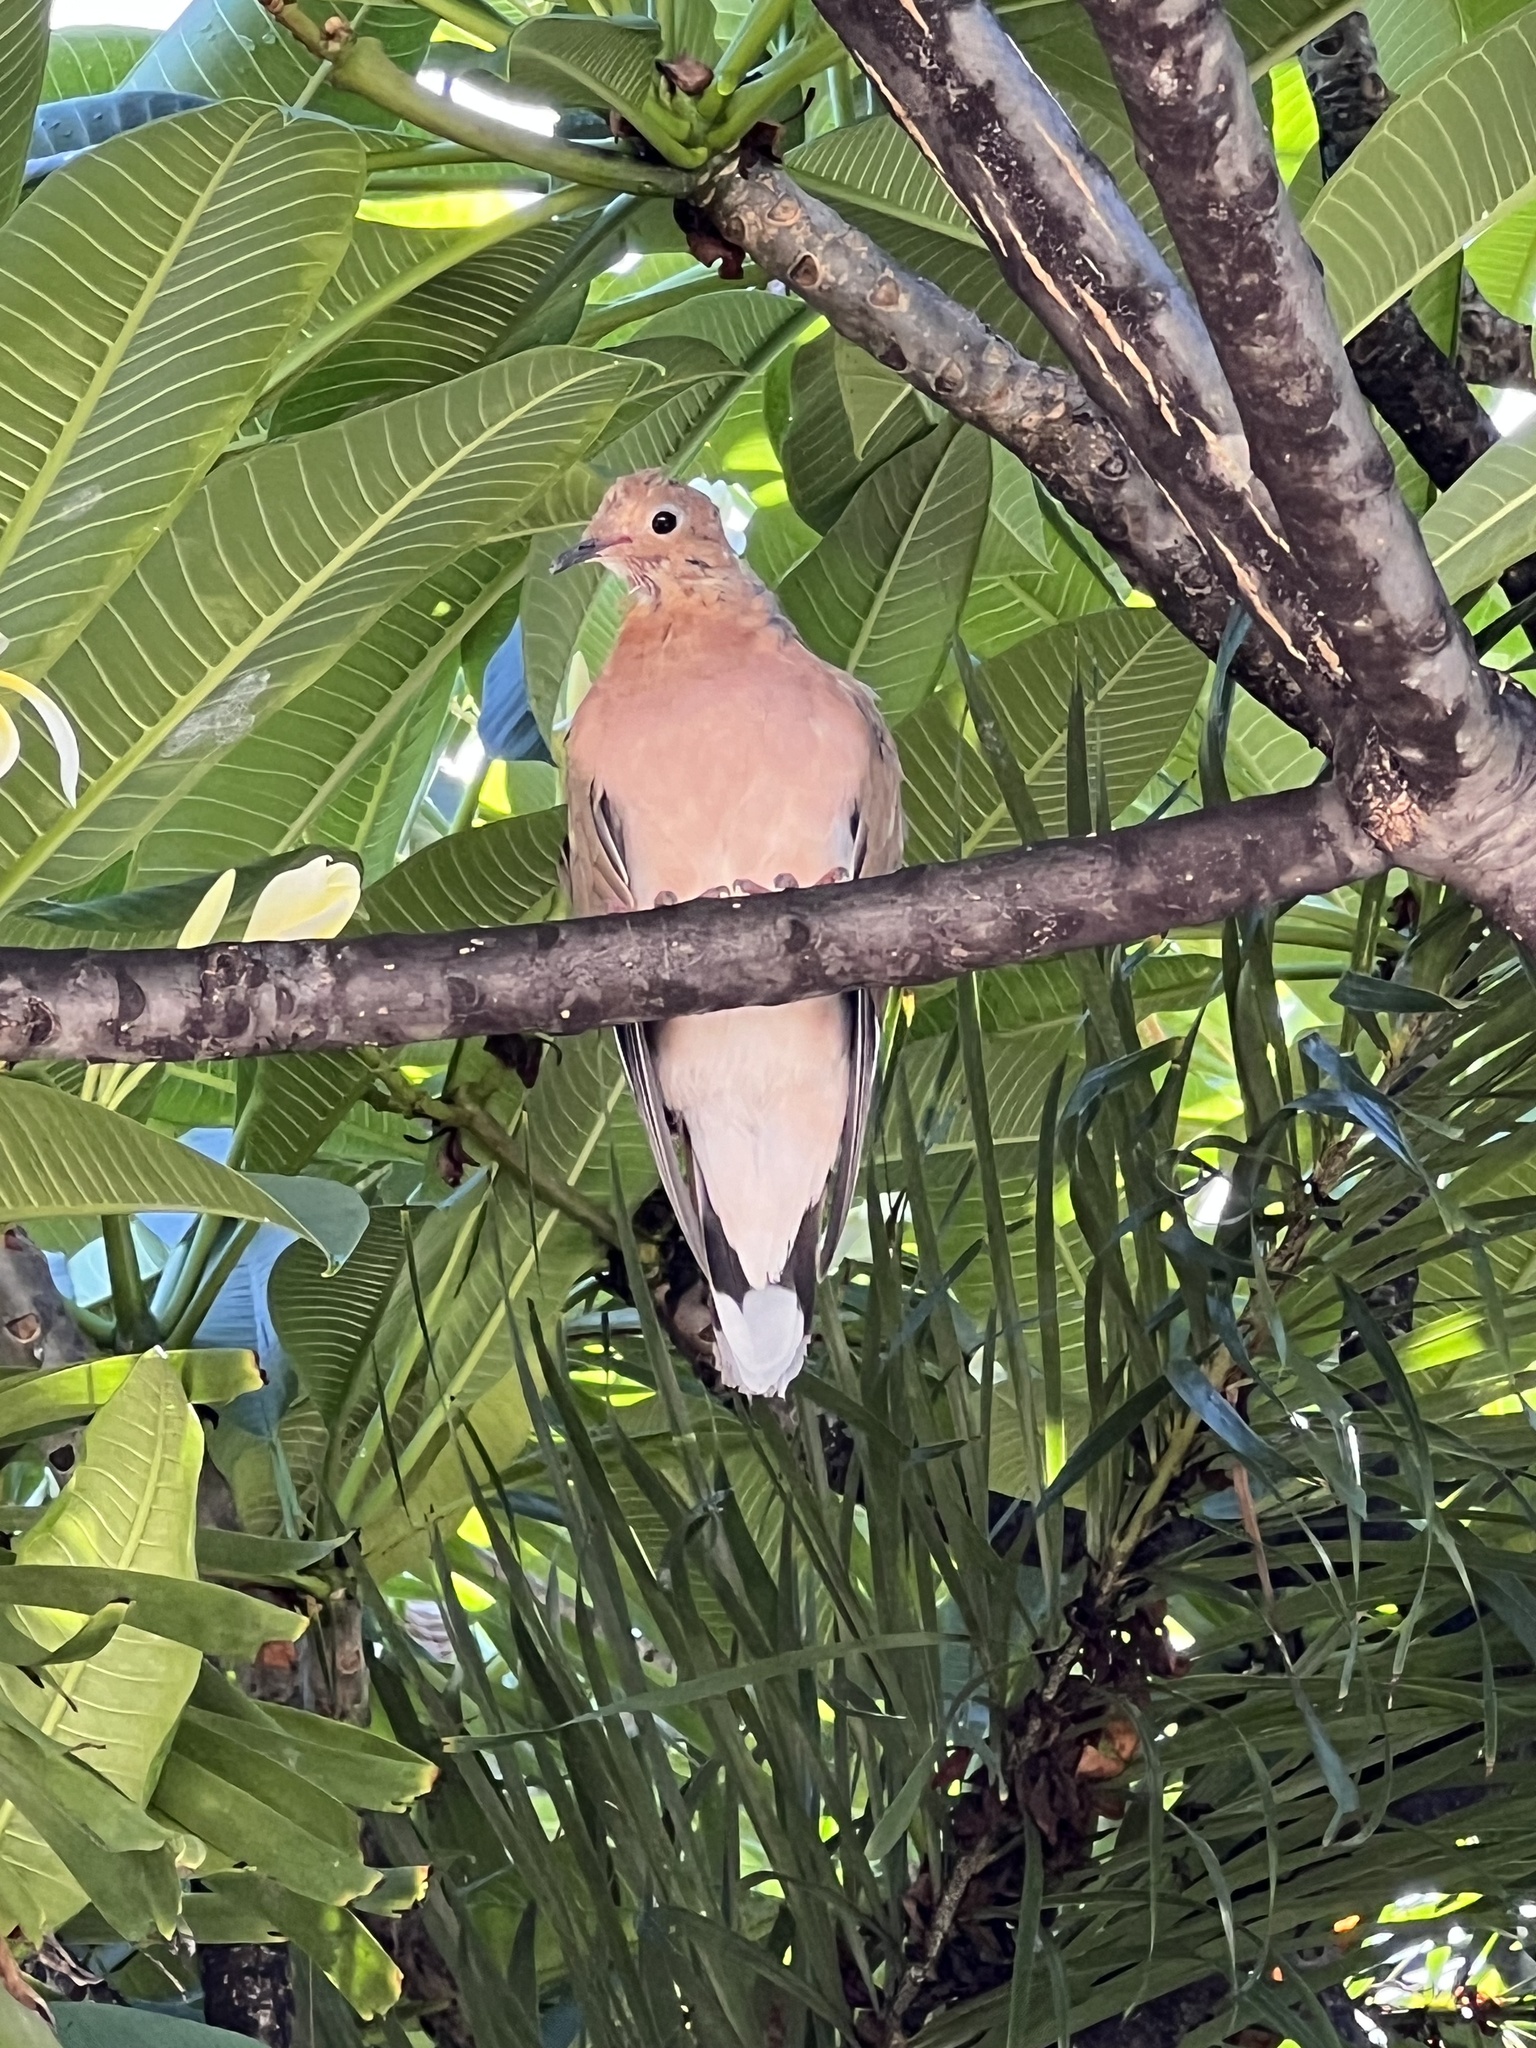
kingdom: Animalia
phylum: Chordata
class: Aves
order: Columbiformes
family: Columbidae
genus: Zenaida
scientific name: Zenaida aurita
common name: Zenaida dove
